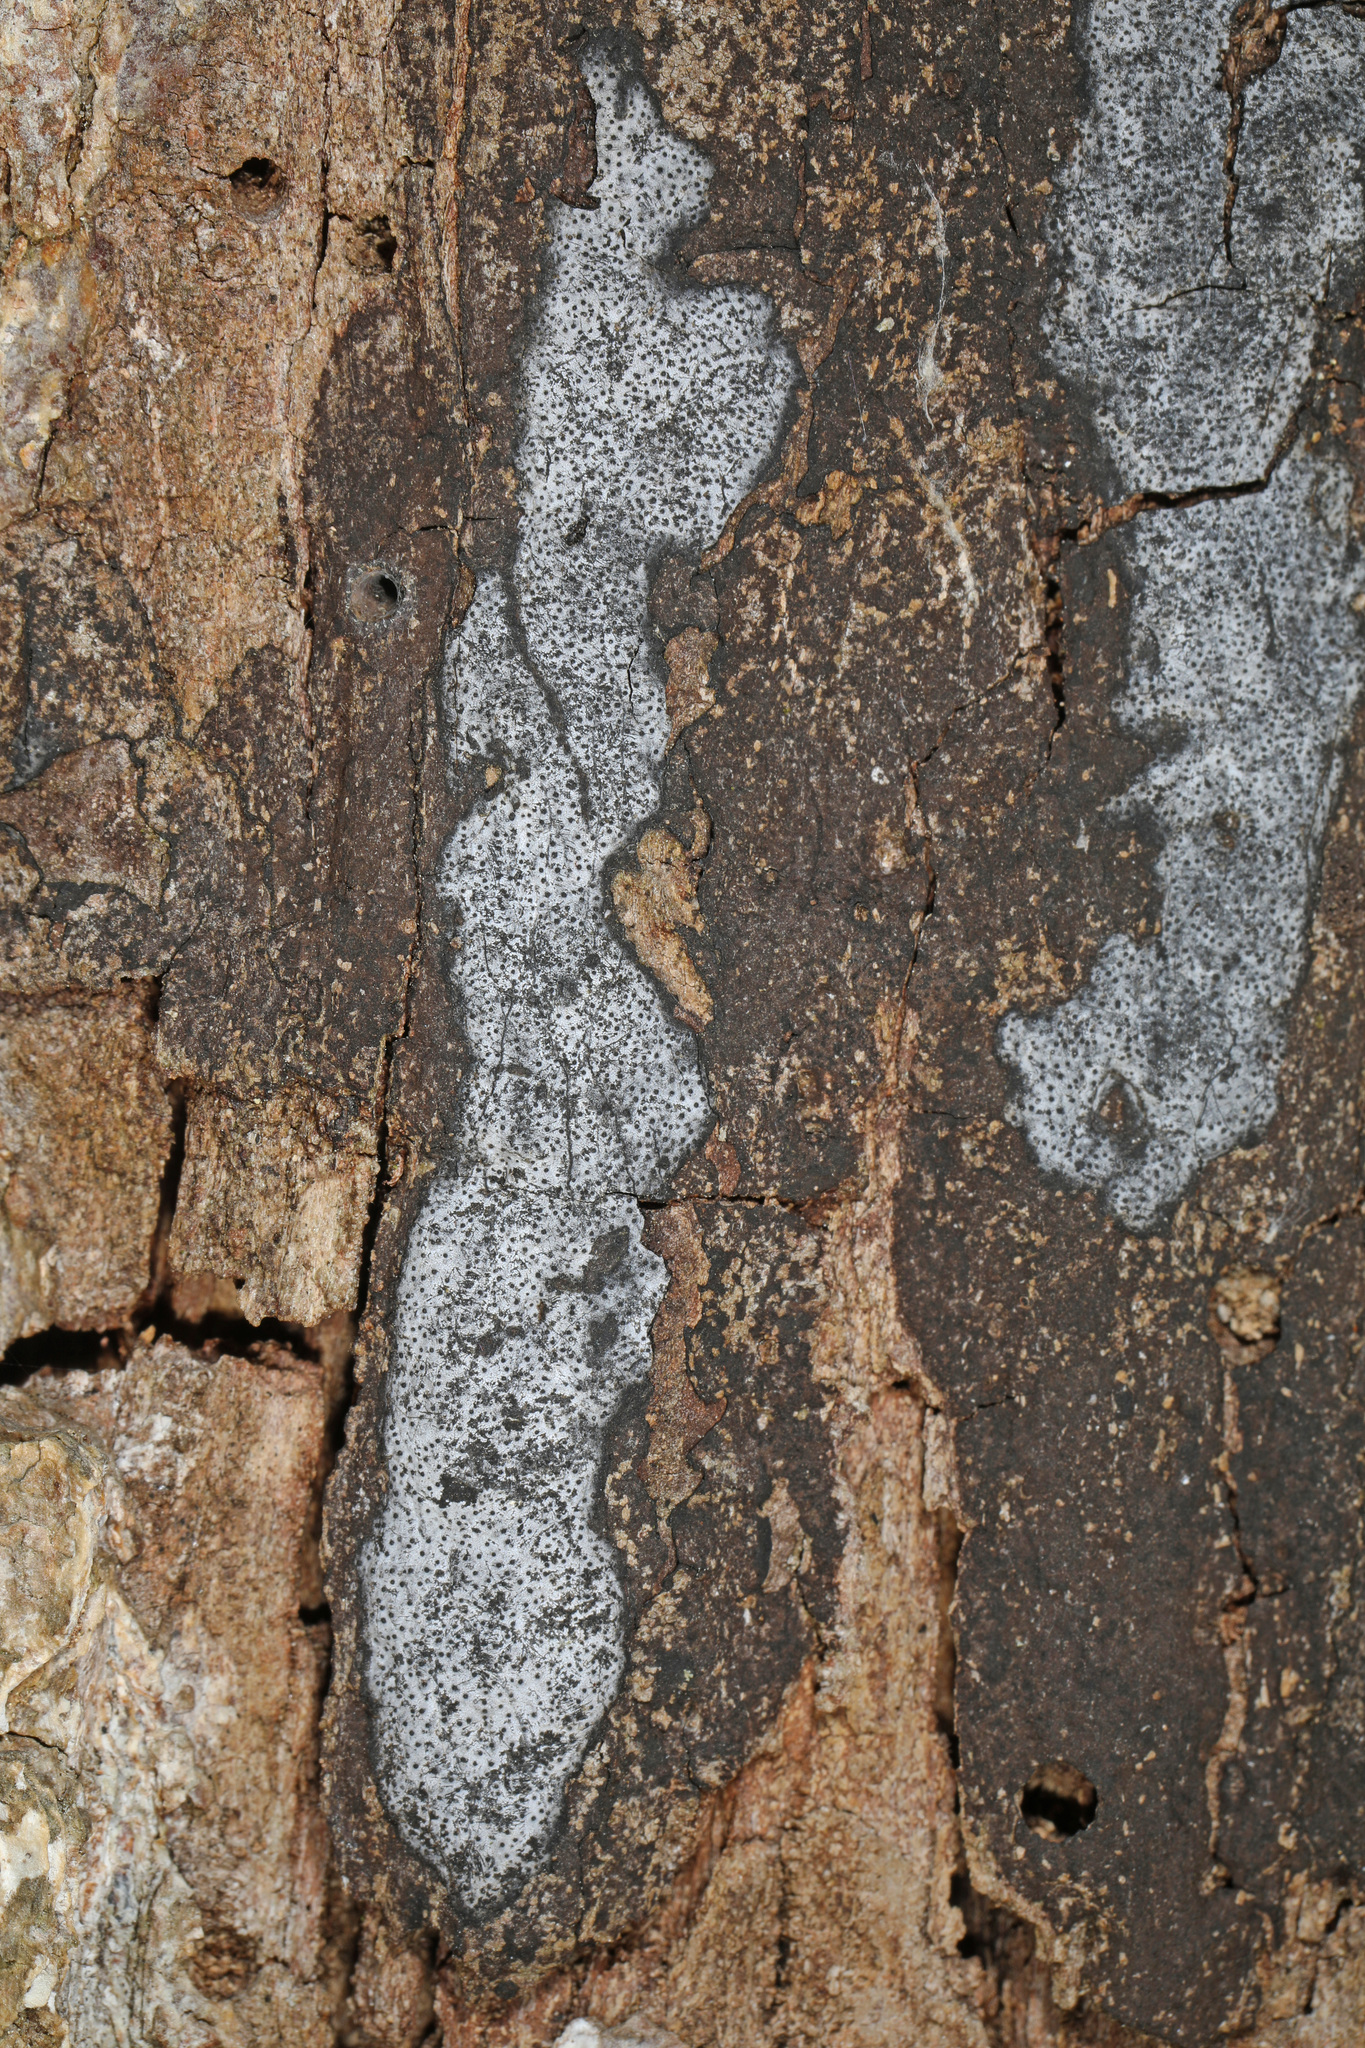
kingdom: Fungi
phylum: Ascomycota
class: Sordariomycetes
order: Xylariales
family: Graphostromataceae
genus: Biscogniauxia
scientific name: Biscogniauxia atropunctata
